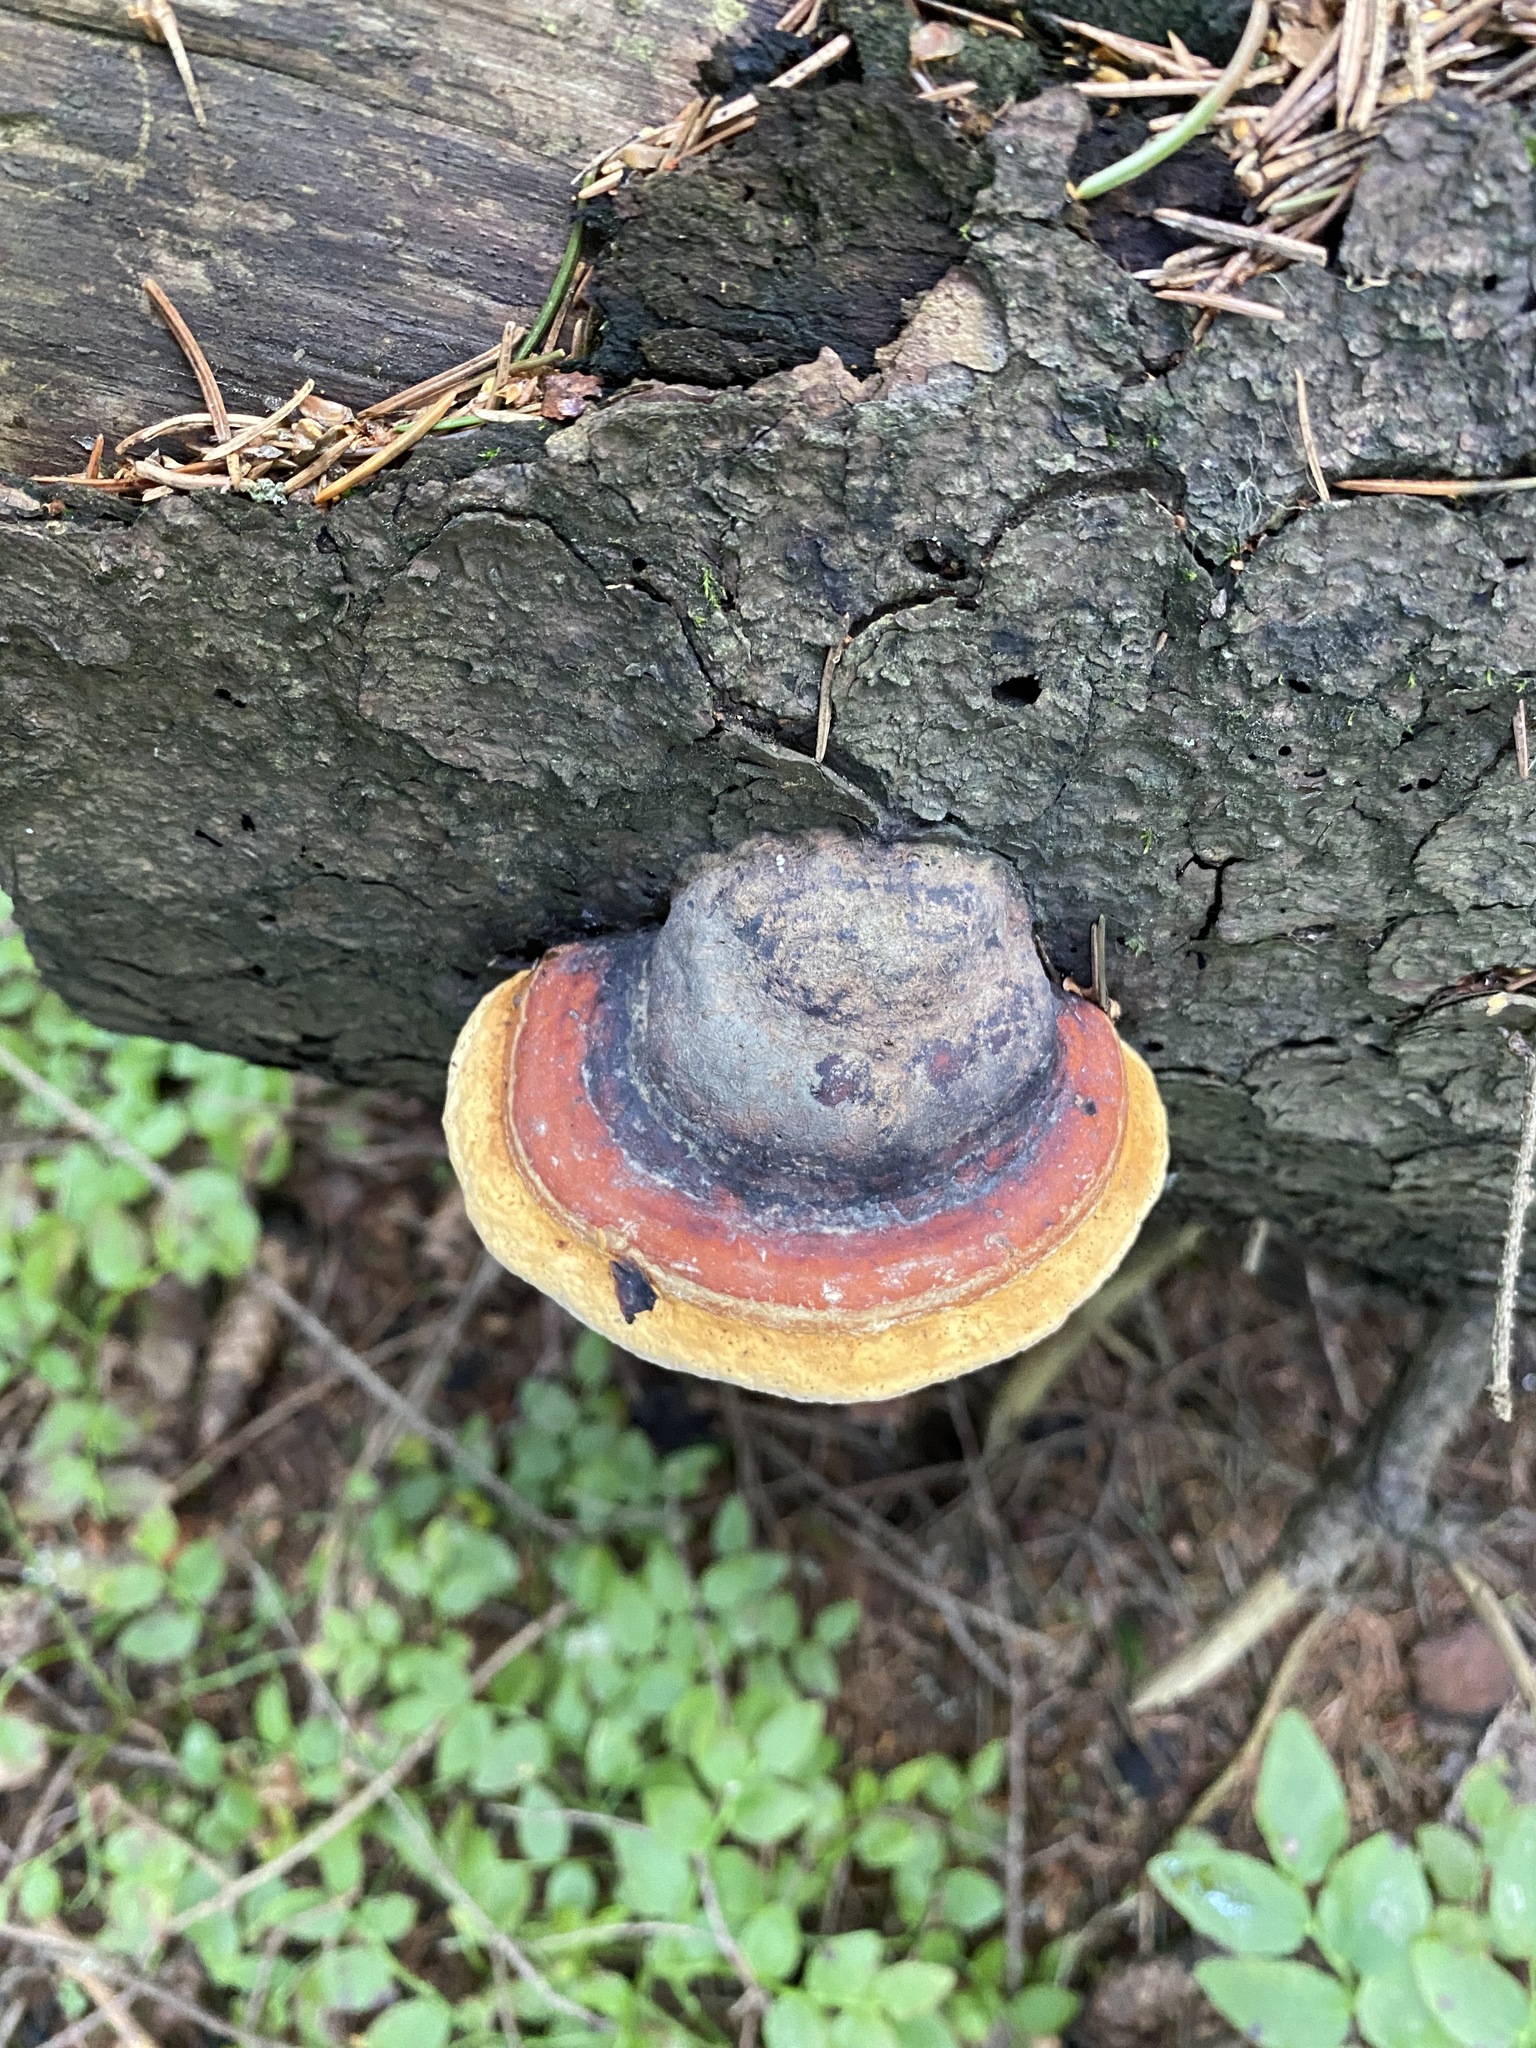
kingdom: Fungi
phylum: Basidiomycota
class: Agaricomycetes
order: Polyporales
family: Fomitopsidaceae
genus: Fomitopsis
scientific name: Fomitopsis pinicola
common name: Red-belted bracket
